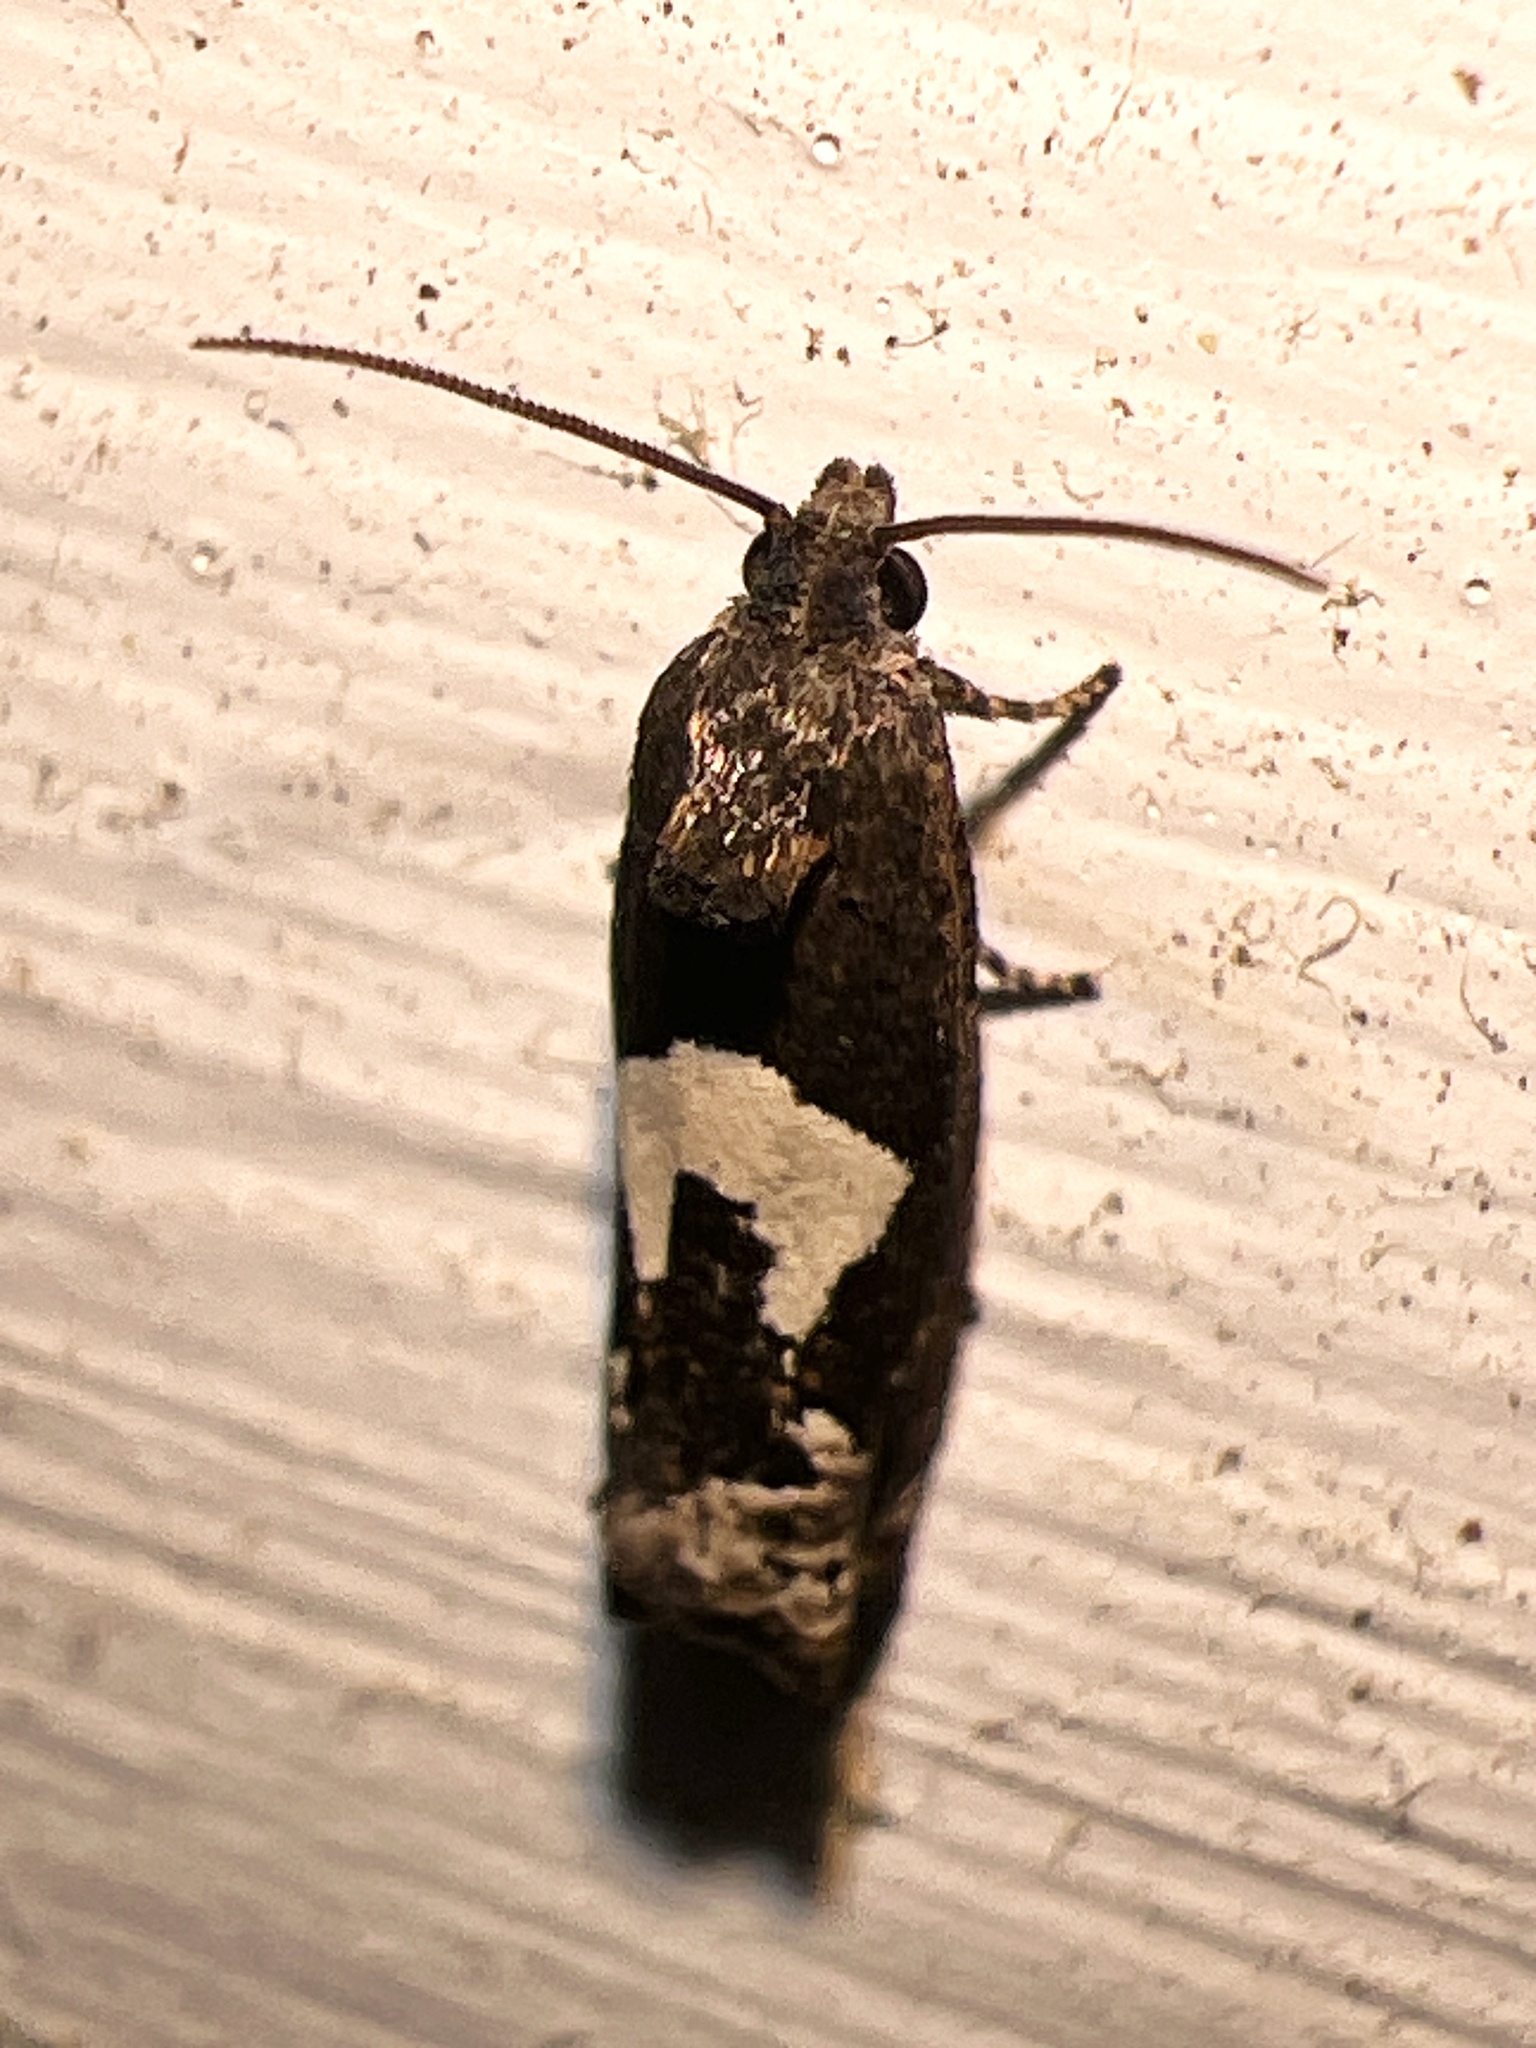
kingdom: Animalia
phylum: Arthropoda
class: Insecta
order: Lepidoptera
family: Tortricidae
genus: Epiblema
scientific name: Epiblema otiosana
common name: Bidens borer moth
